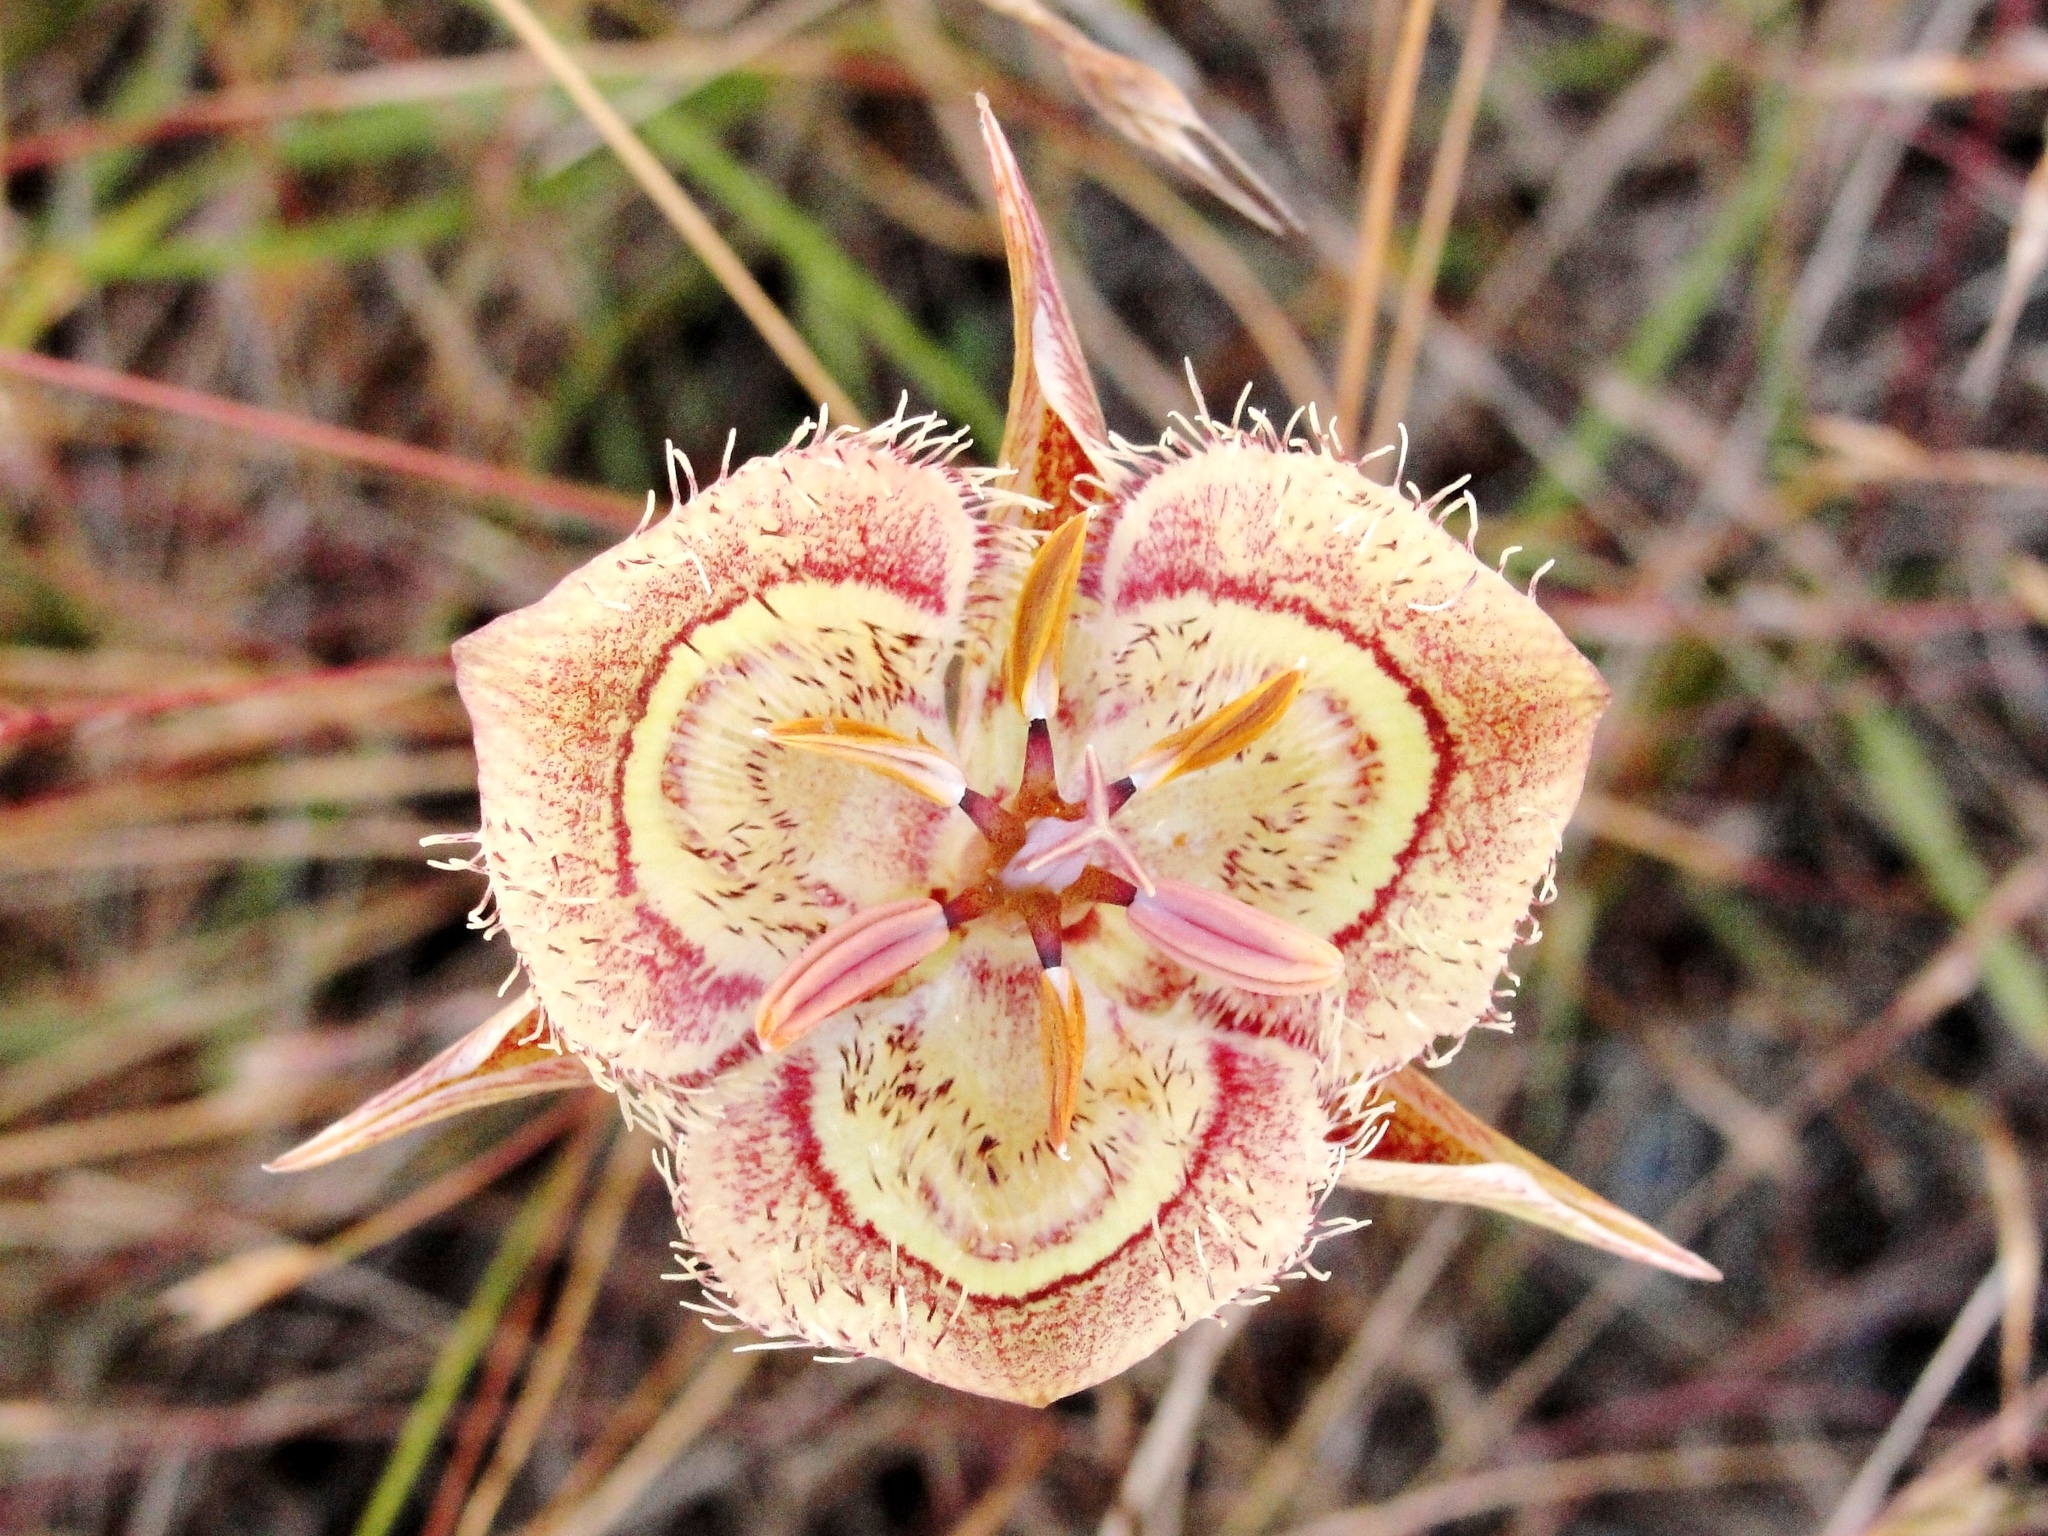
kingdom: Plantae
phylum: Tracheophyta
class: Liliopsida
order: Liliales
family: Liliaceae
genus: Calochortus
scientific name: Calochortus tiburonensis
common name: Tiburon mariposa-lily
